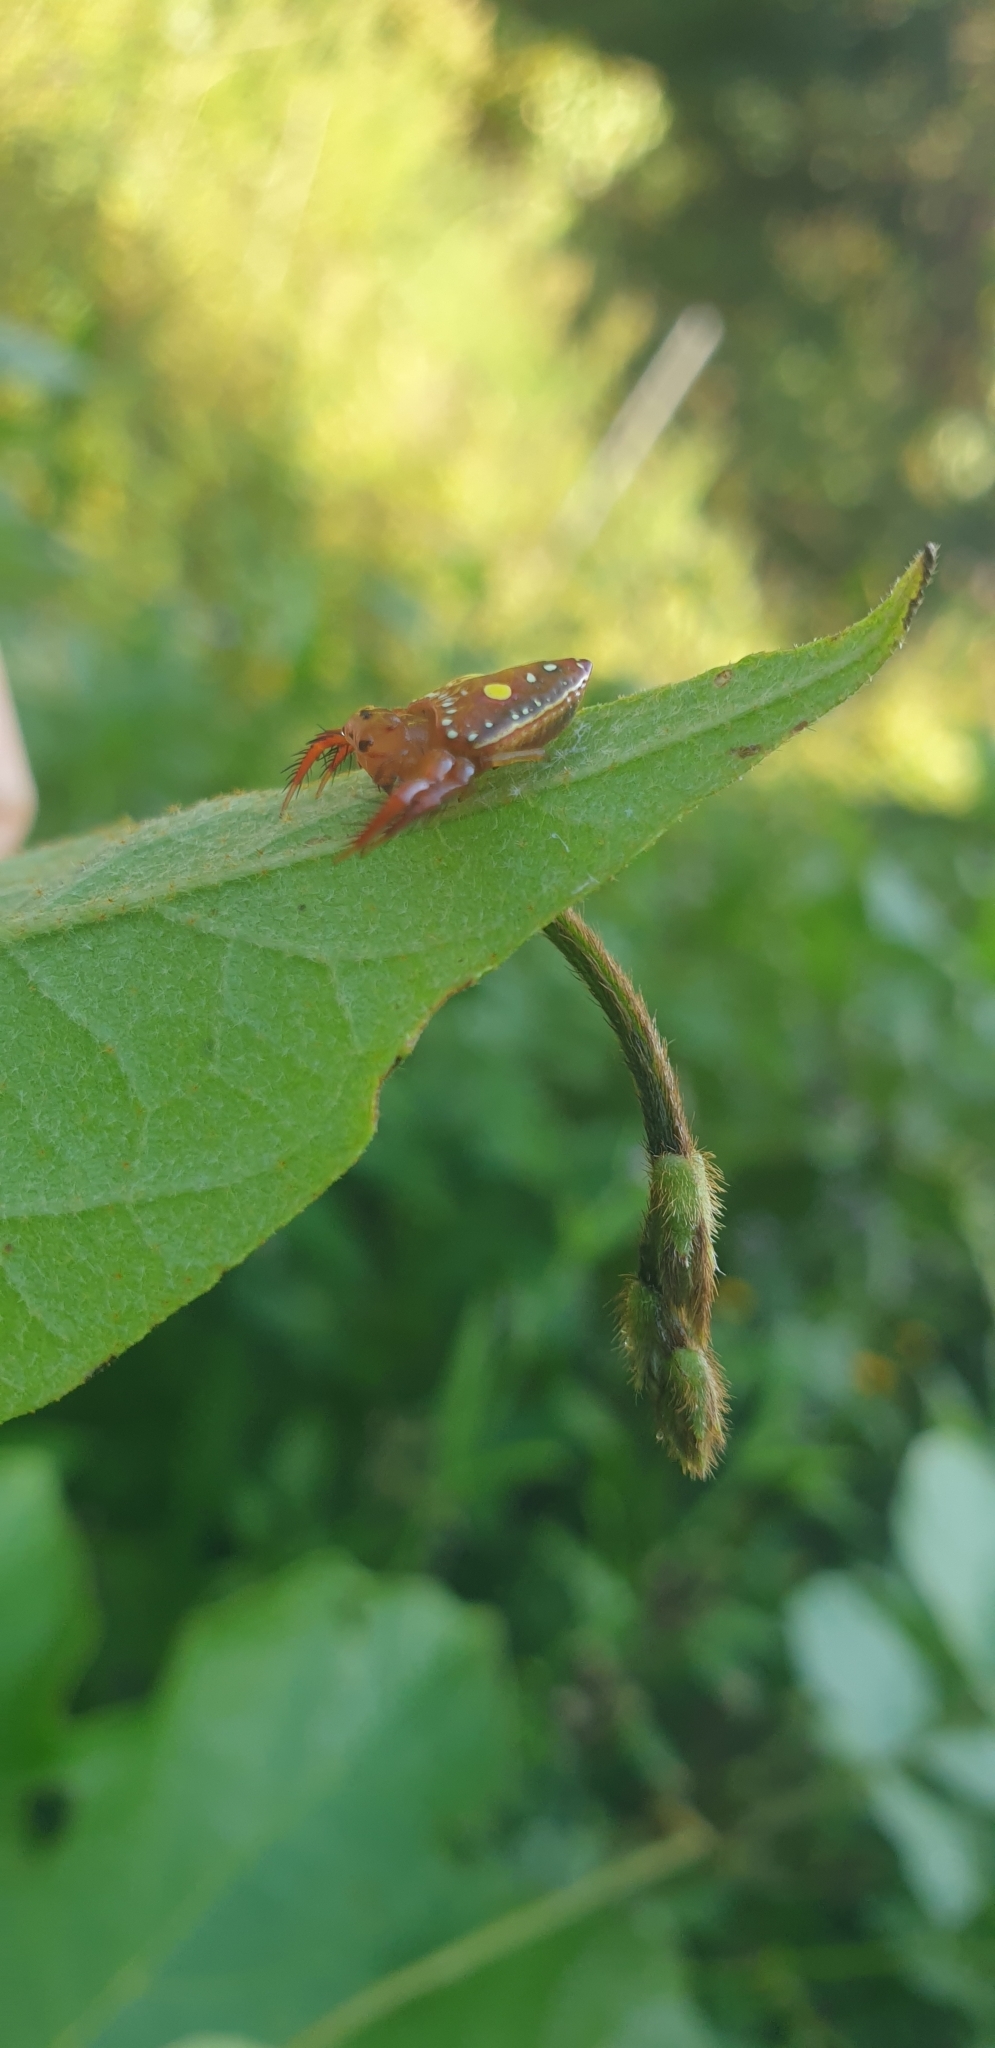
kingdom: Animalia
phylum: Arthropoda
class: Arachnida
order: Araneae
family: Arkyidae
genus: Arkys
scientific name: Arkys lancearius
